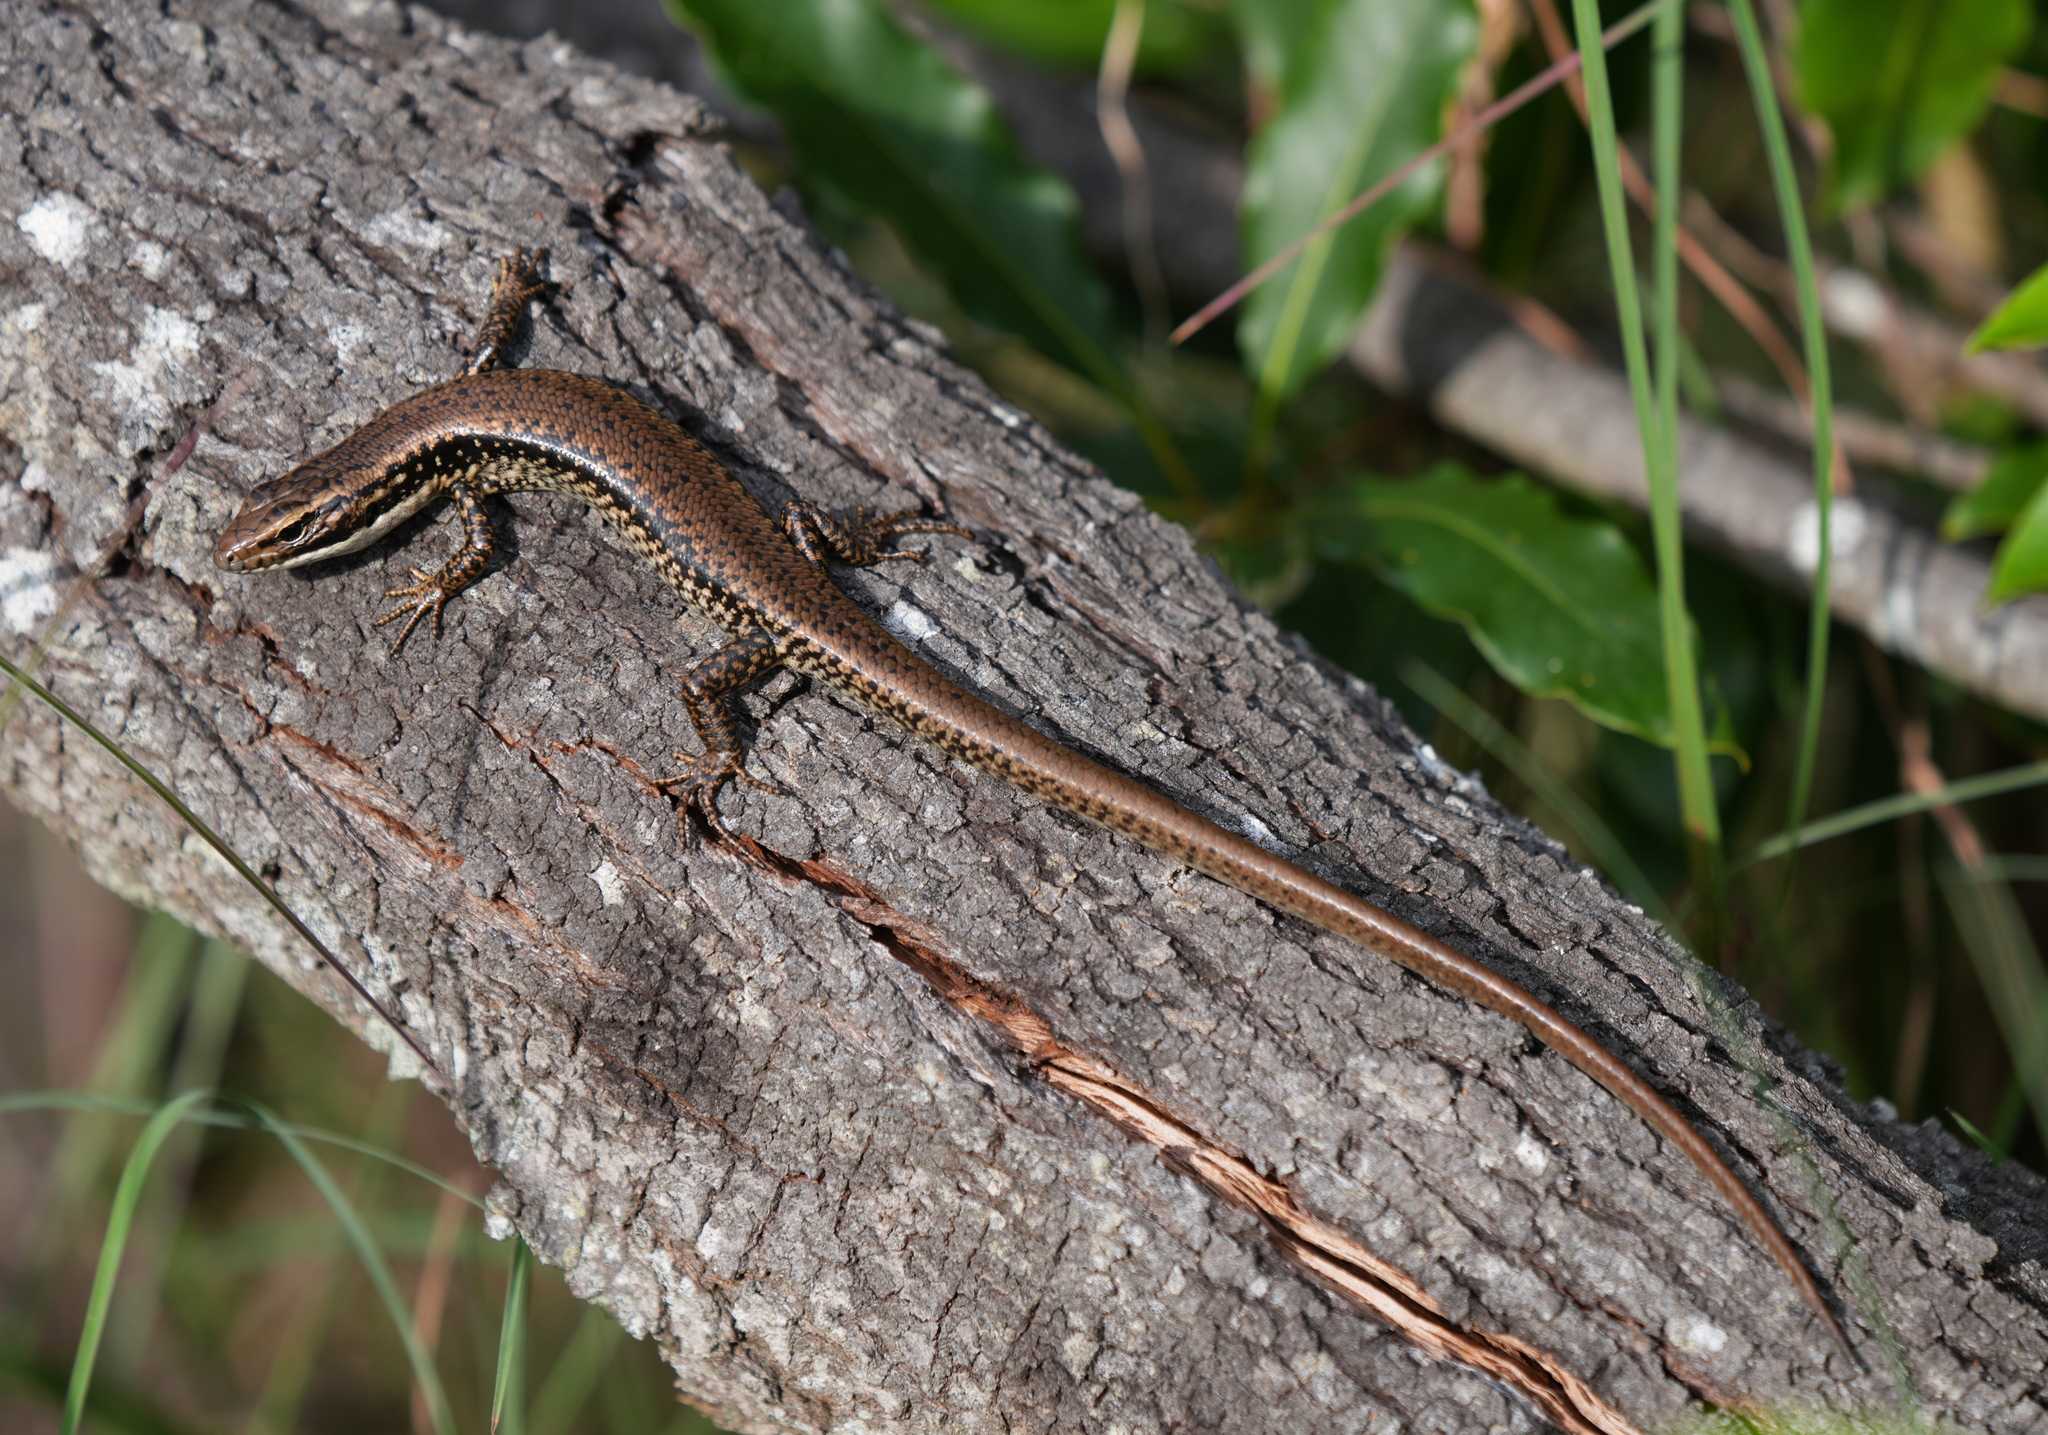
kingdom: Animalia
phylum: Chordata
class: Squamata
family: Scincidae
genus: Eulamprus
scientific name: Eulamprus heatwolei
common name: Warm-temperate water-skink
